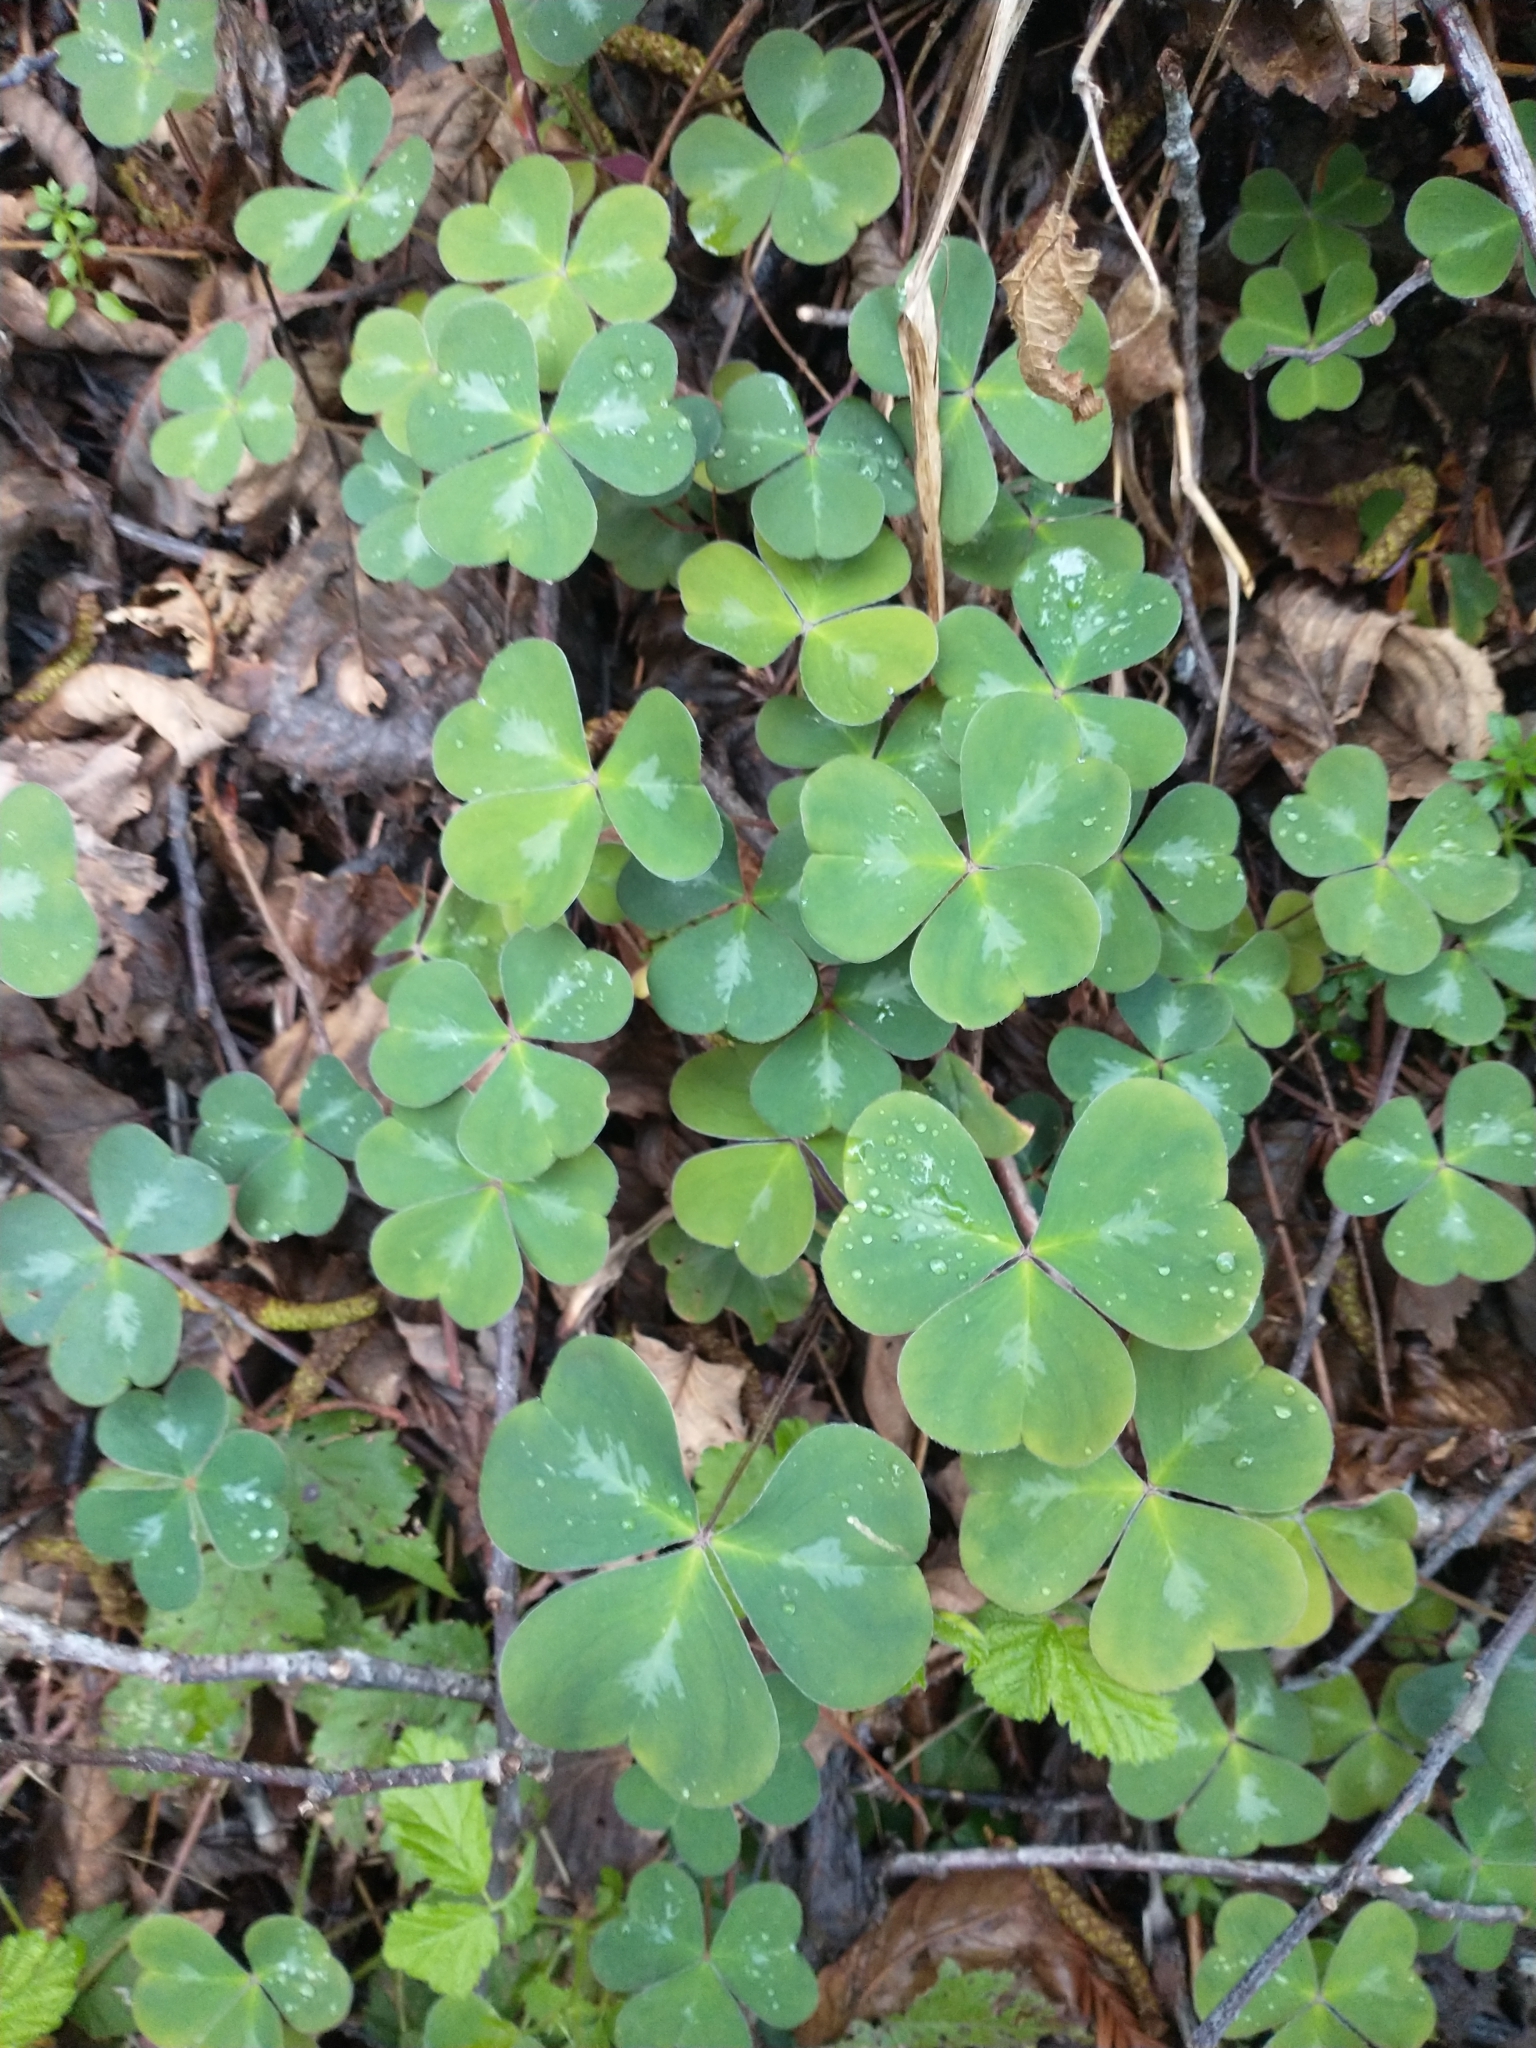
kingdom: Plantae
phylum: Tracheophyta
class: Magnoliopsida
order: Oxalidales
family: Oxalidaceae
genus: Oxalis
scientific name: Oxalis oregana
